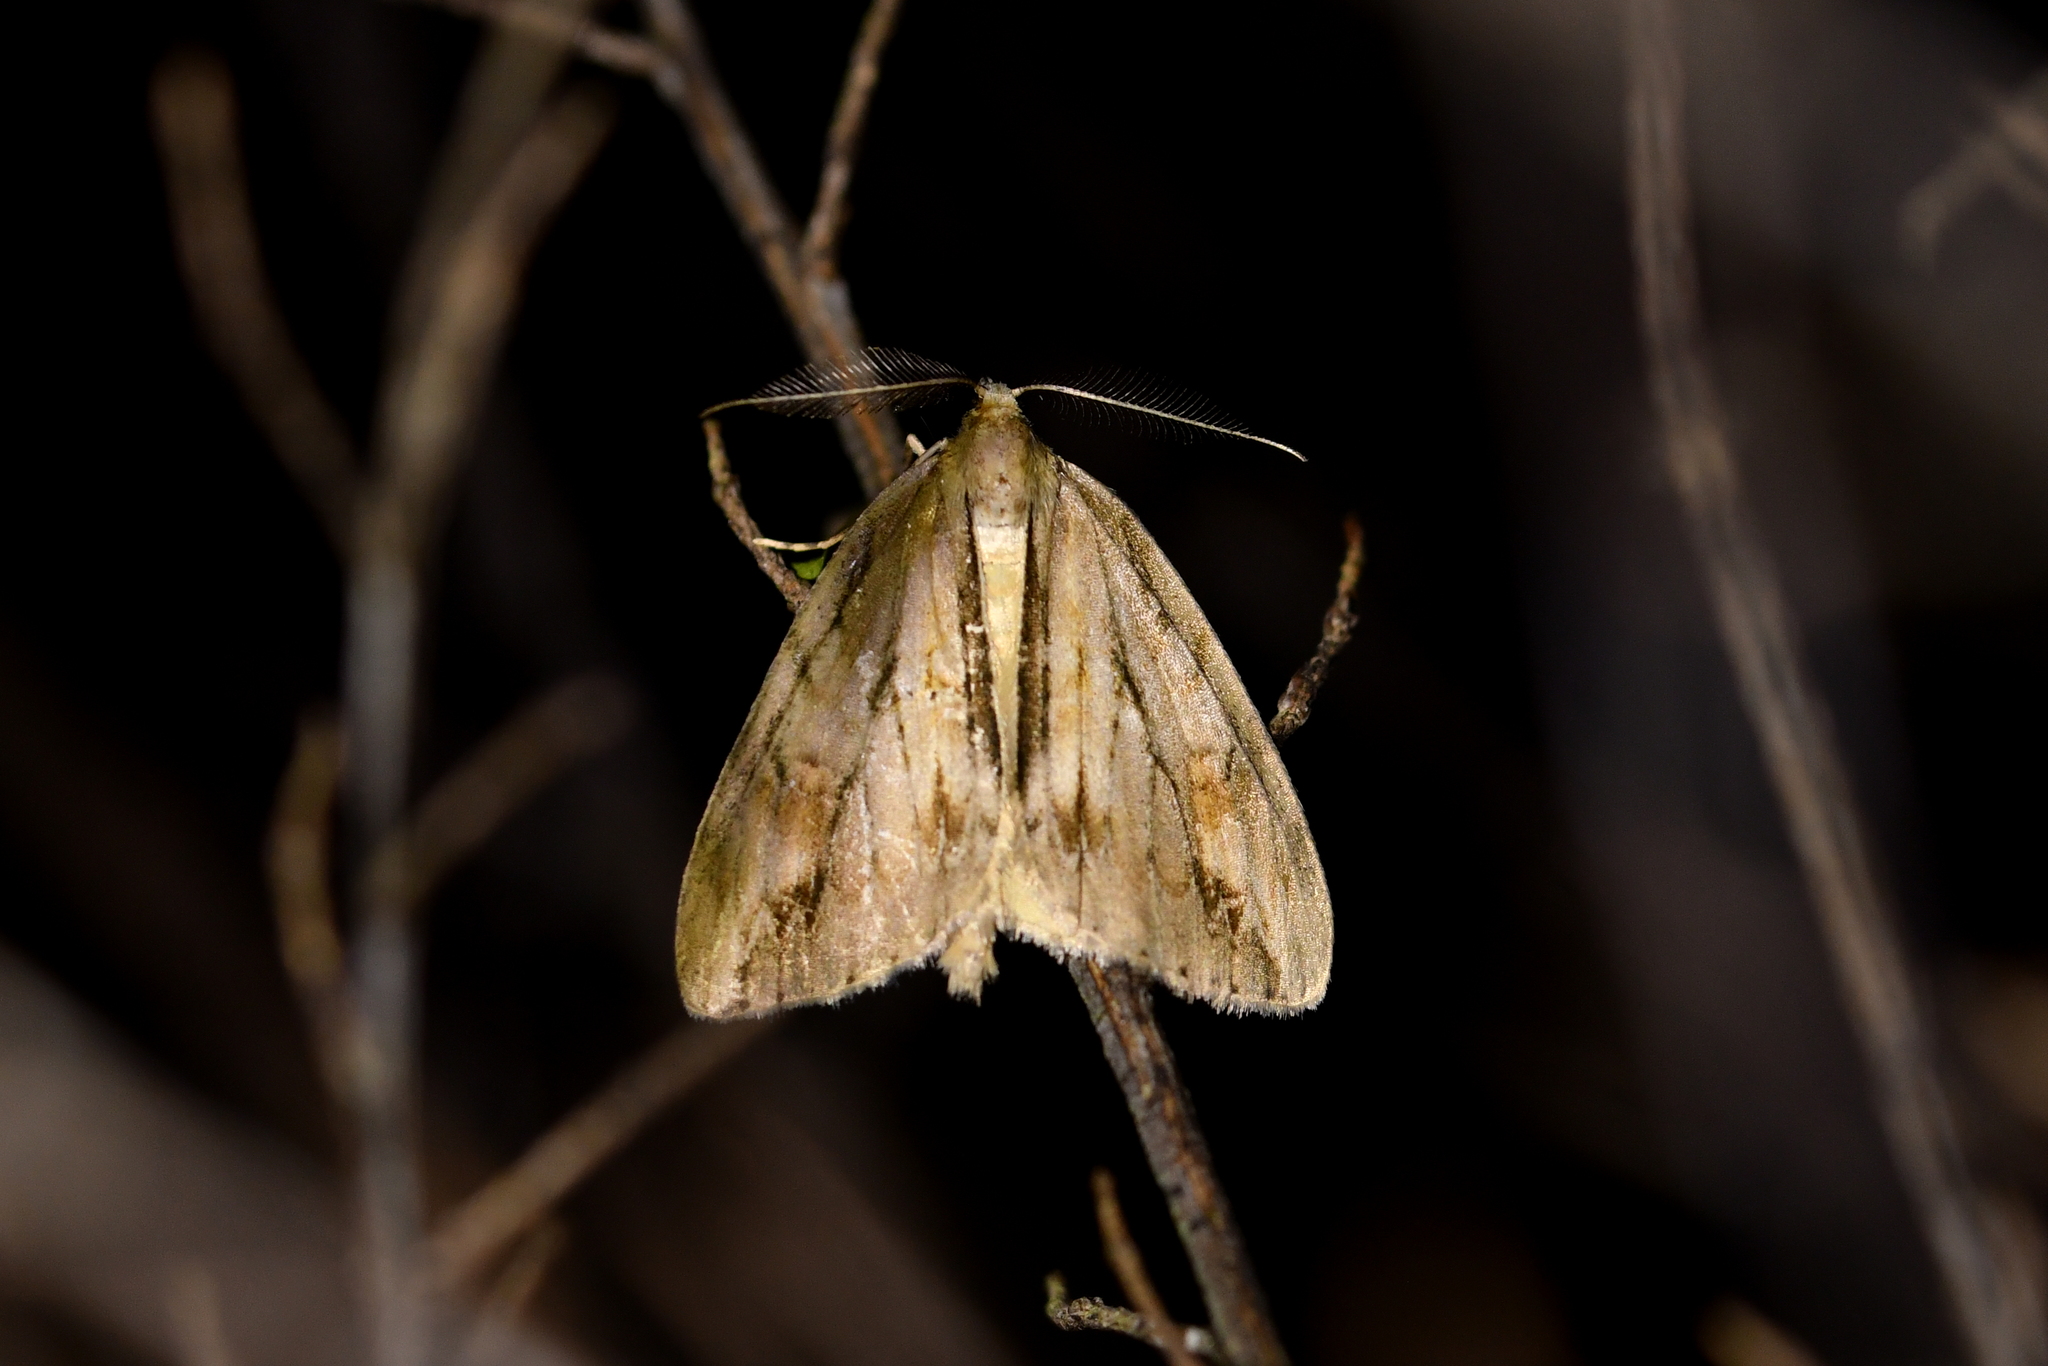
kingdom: Animalia
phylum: Arthropoda
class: Insecta
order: Lepidoptera
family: Geometridae
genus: Pseudocoremia
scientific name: Pseudocoremia lupinata
